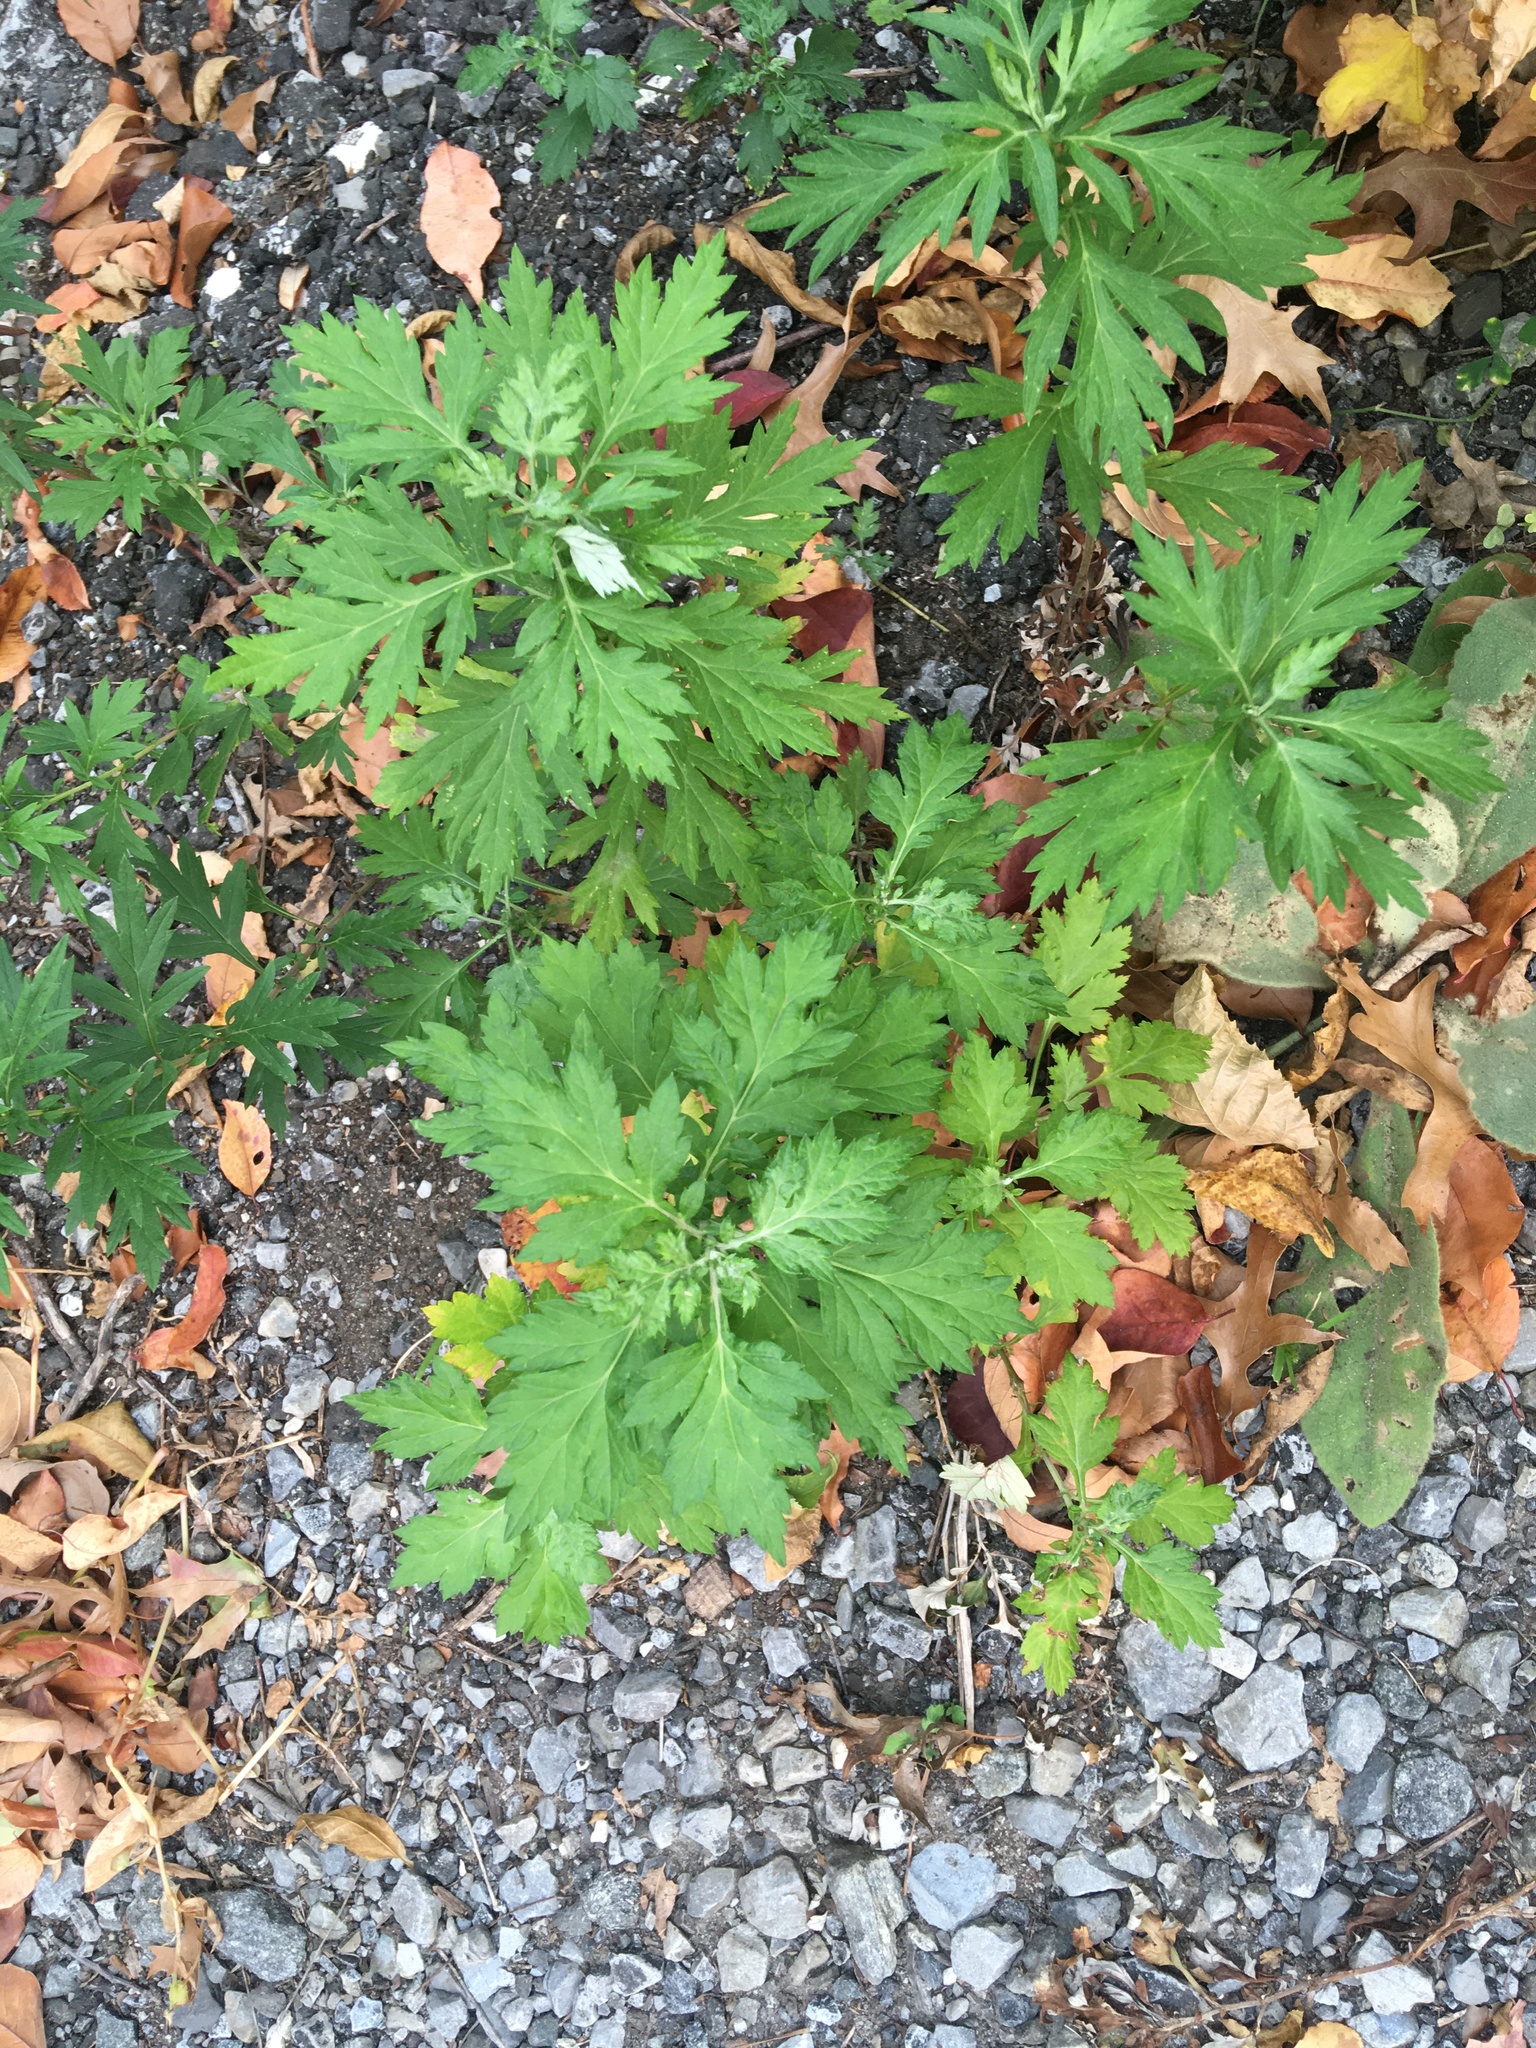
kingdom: Plantae
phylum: Tracheophyta
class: Magnoliopsida
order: Asterales
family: Asteraceae
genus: Artemisia
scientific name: Artemisia vulgaris
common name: Mugwort
